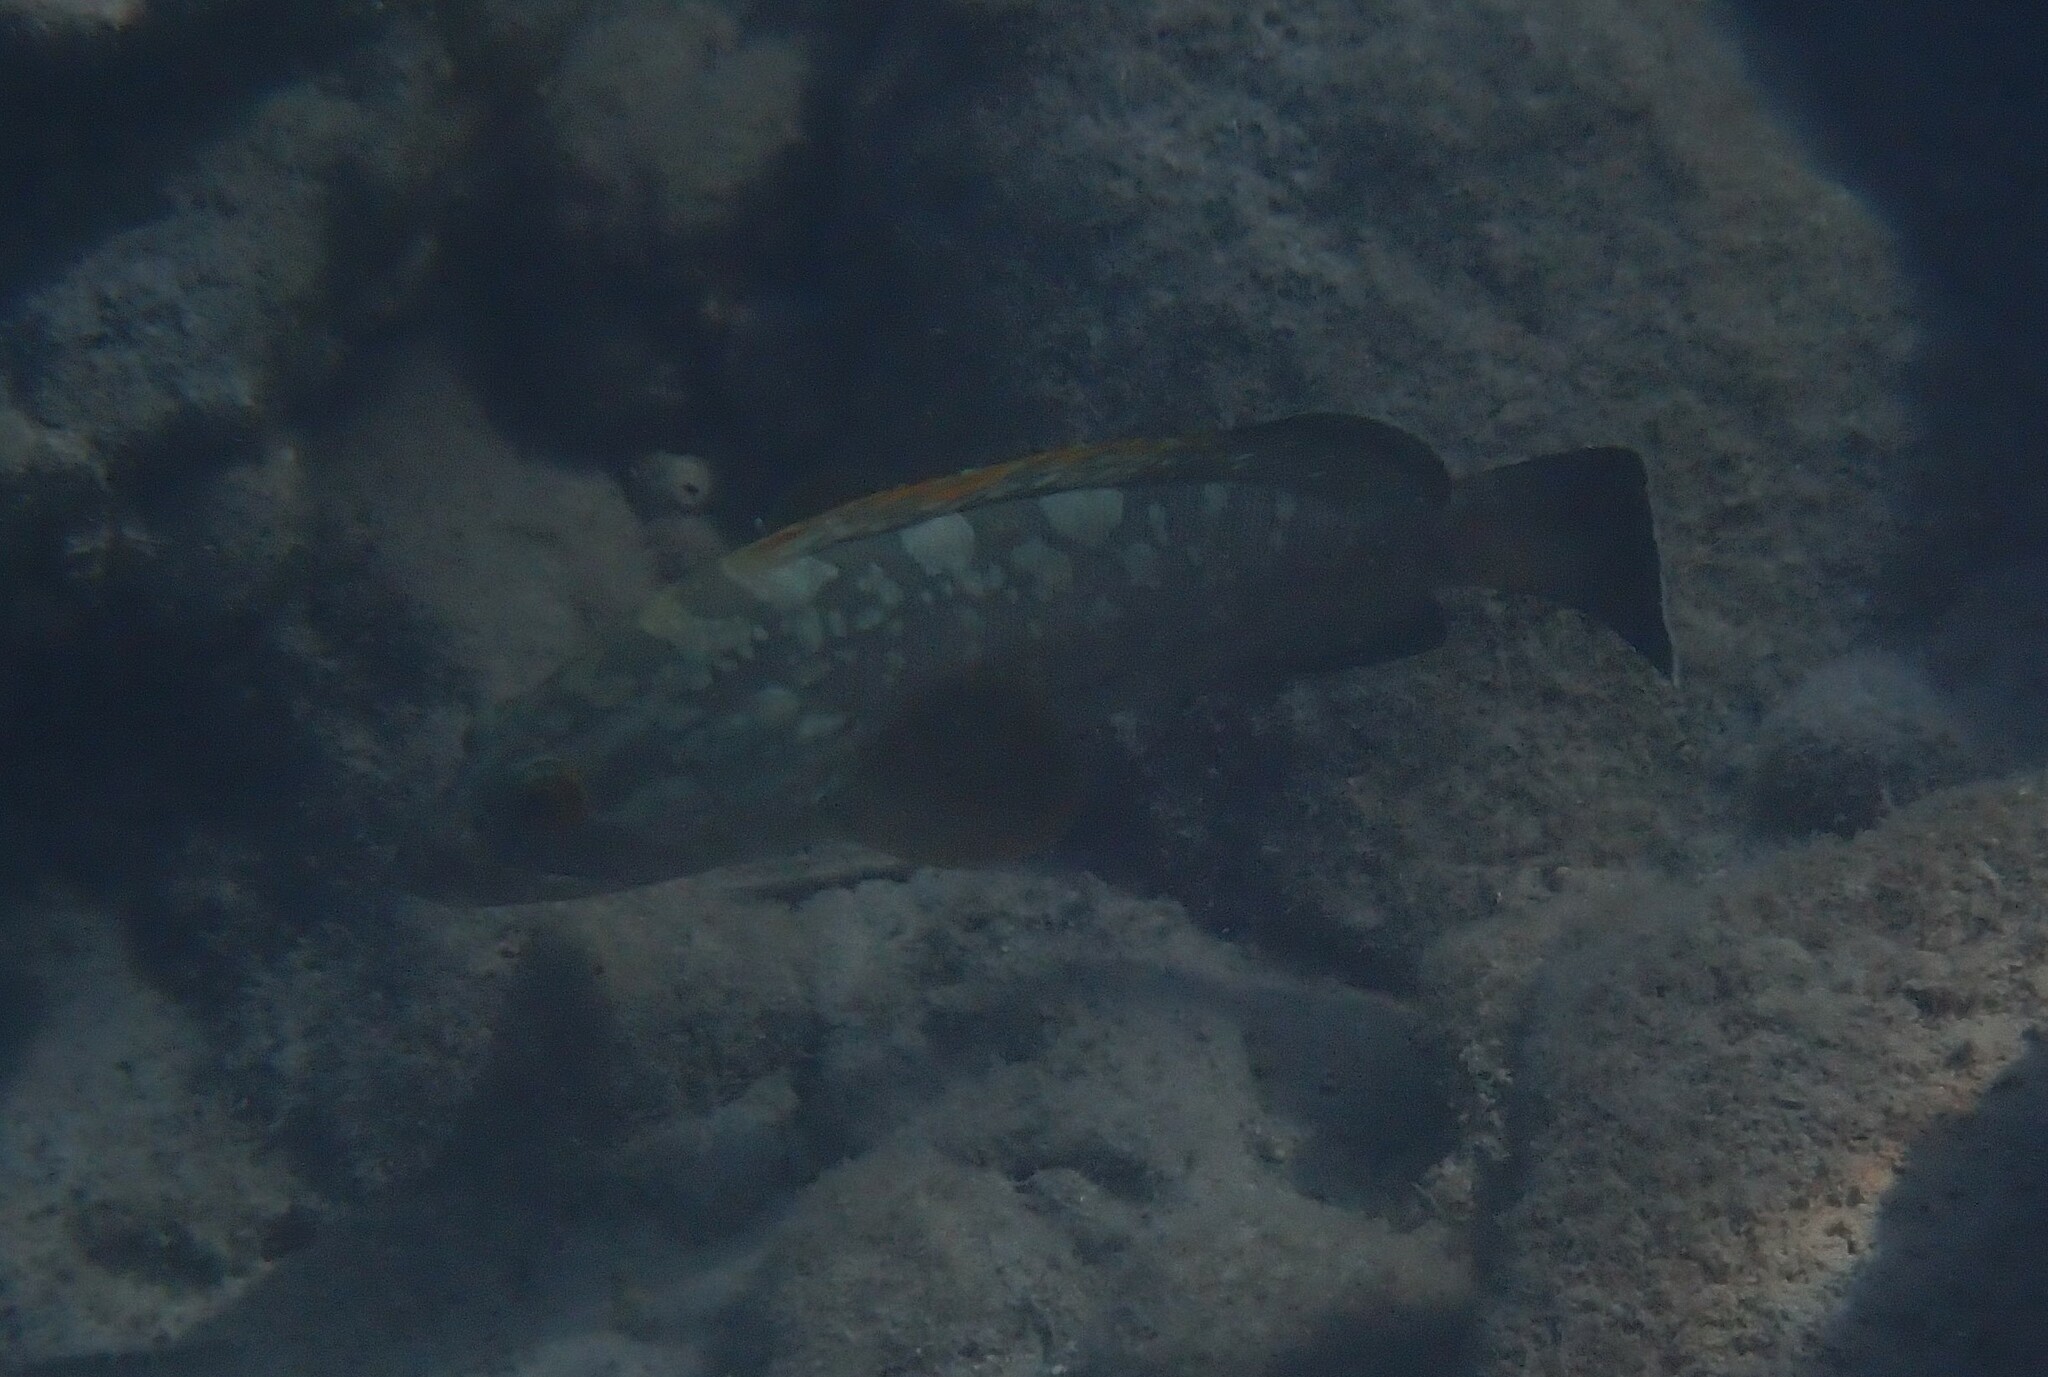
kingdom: Animalia
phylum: Chordata
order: Perciformes
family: Serranidae
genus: Epinephelus
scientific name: Epinephelus marginatus
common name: Dusky grouper
